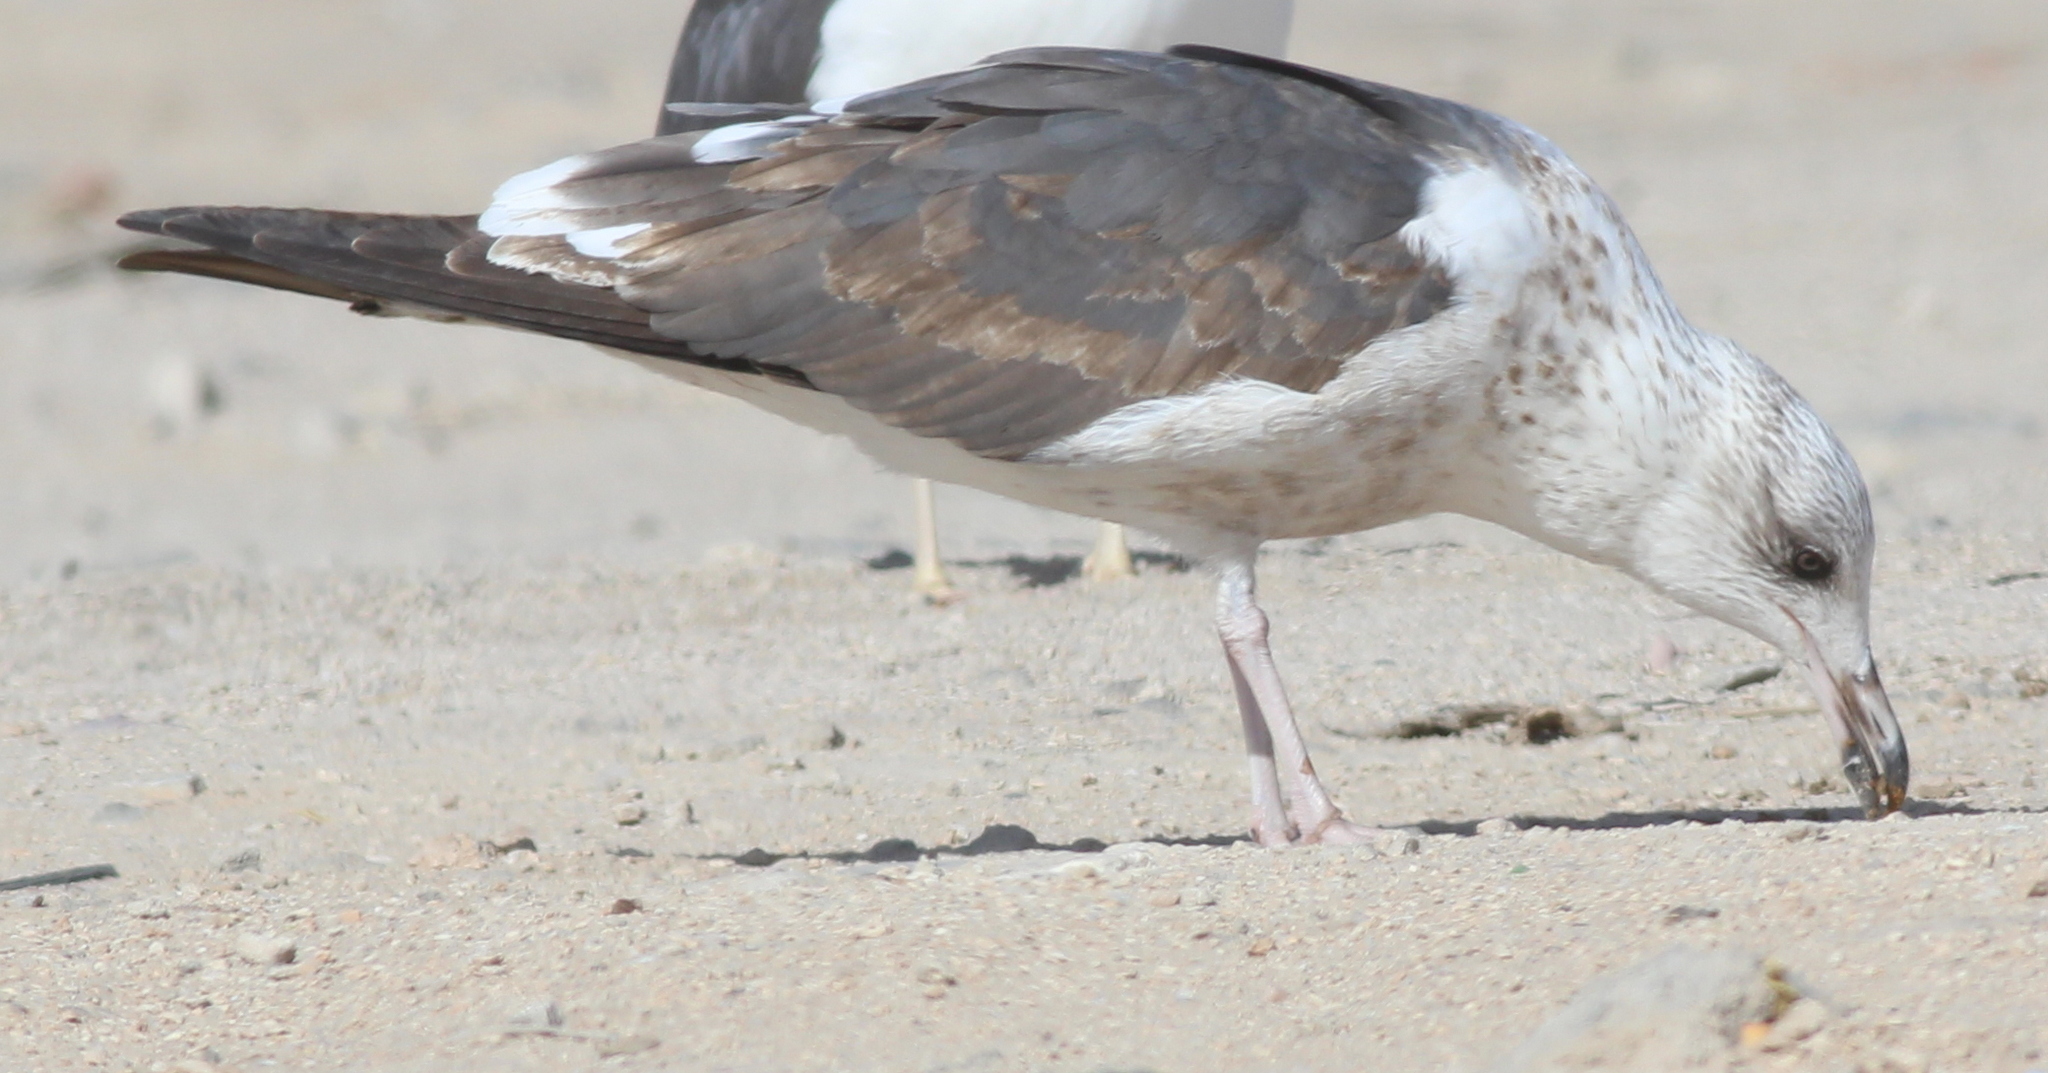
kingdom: Animalia
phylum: Chordata
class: Aves
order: Charadriiformes
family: Laridae
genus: Larus
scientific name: Larus fuscus
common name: Lesser black-backed gull
